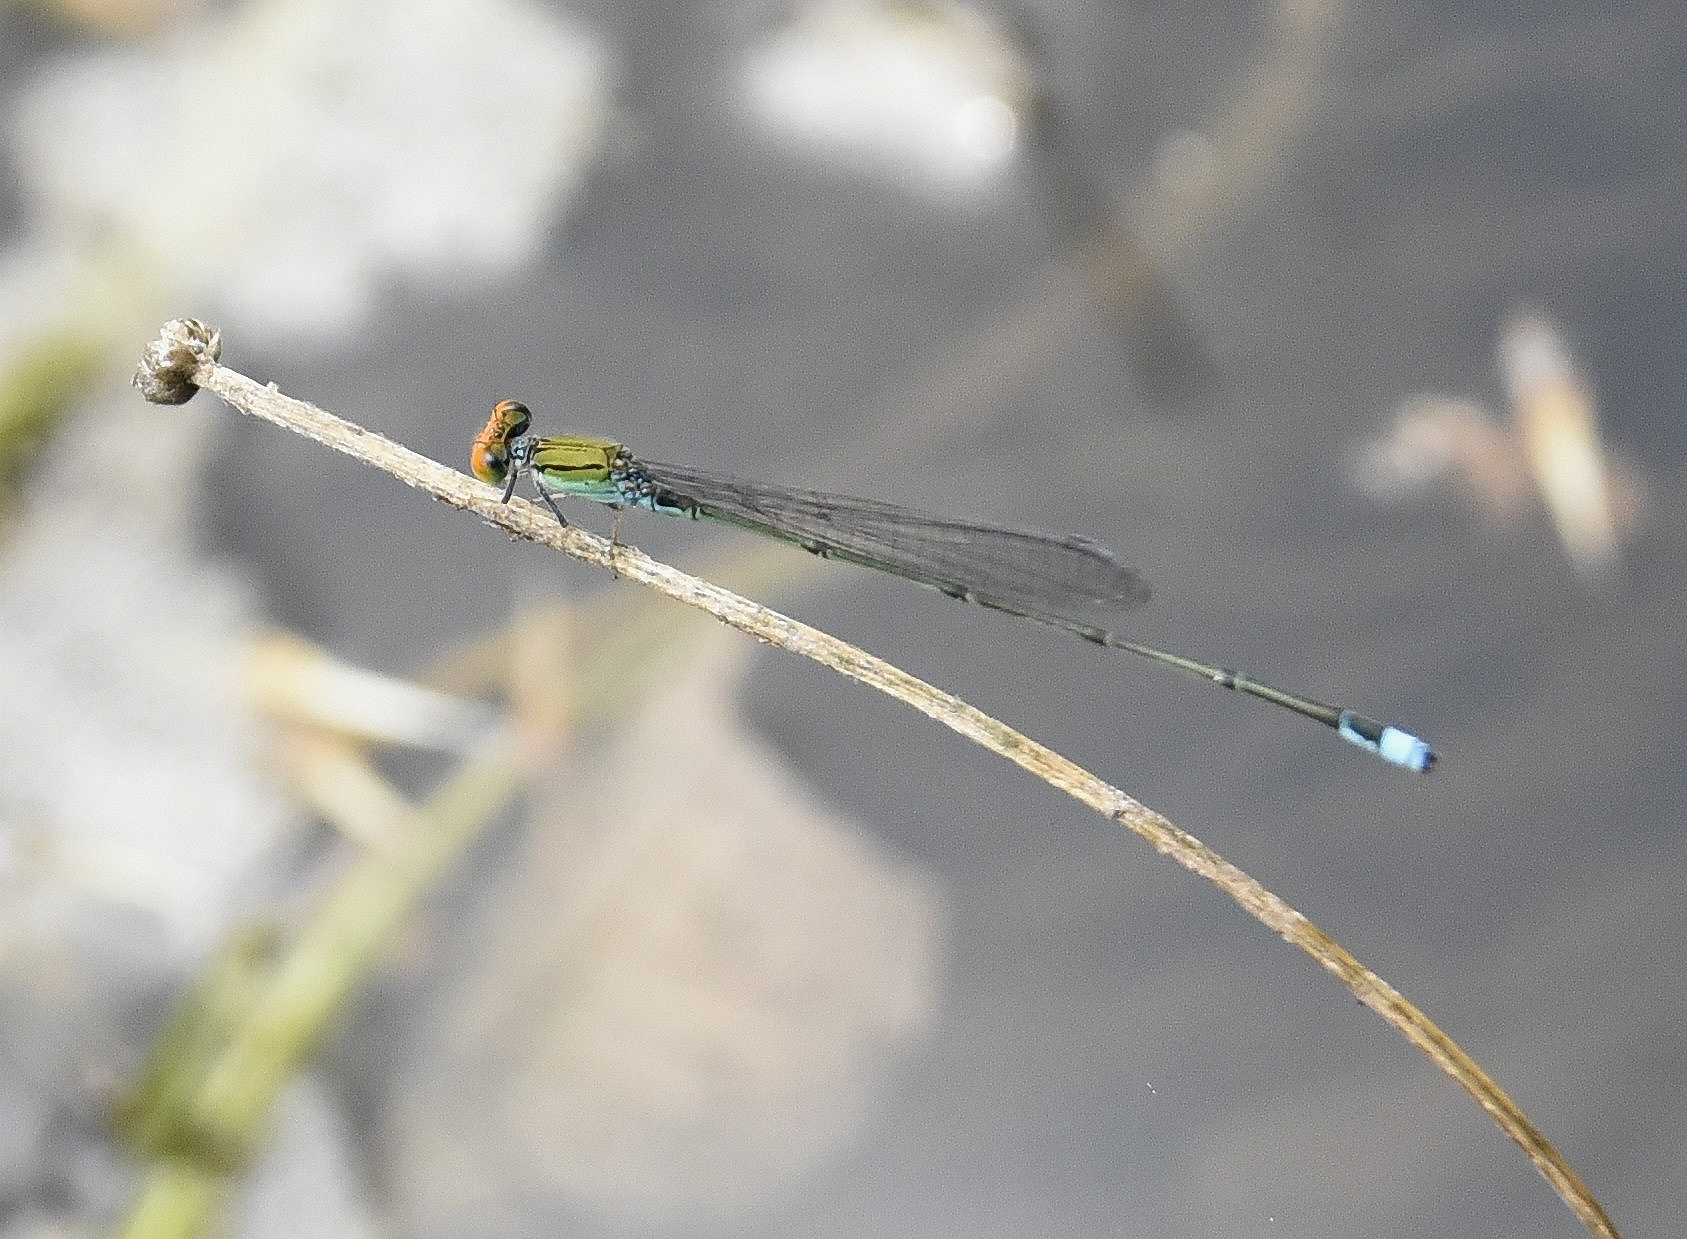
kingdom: Animalia
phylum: Arthropoda
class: Insecta
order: Odonata
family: Coenagrionidae
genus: Pseudagrion
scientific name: Pseudagrion rubriceps
